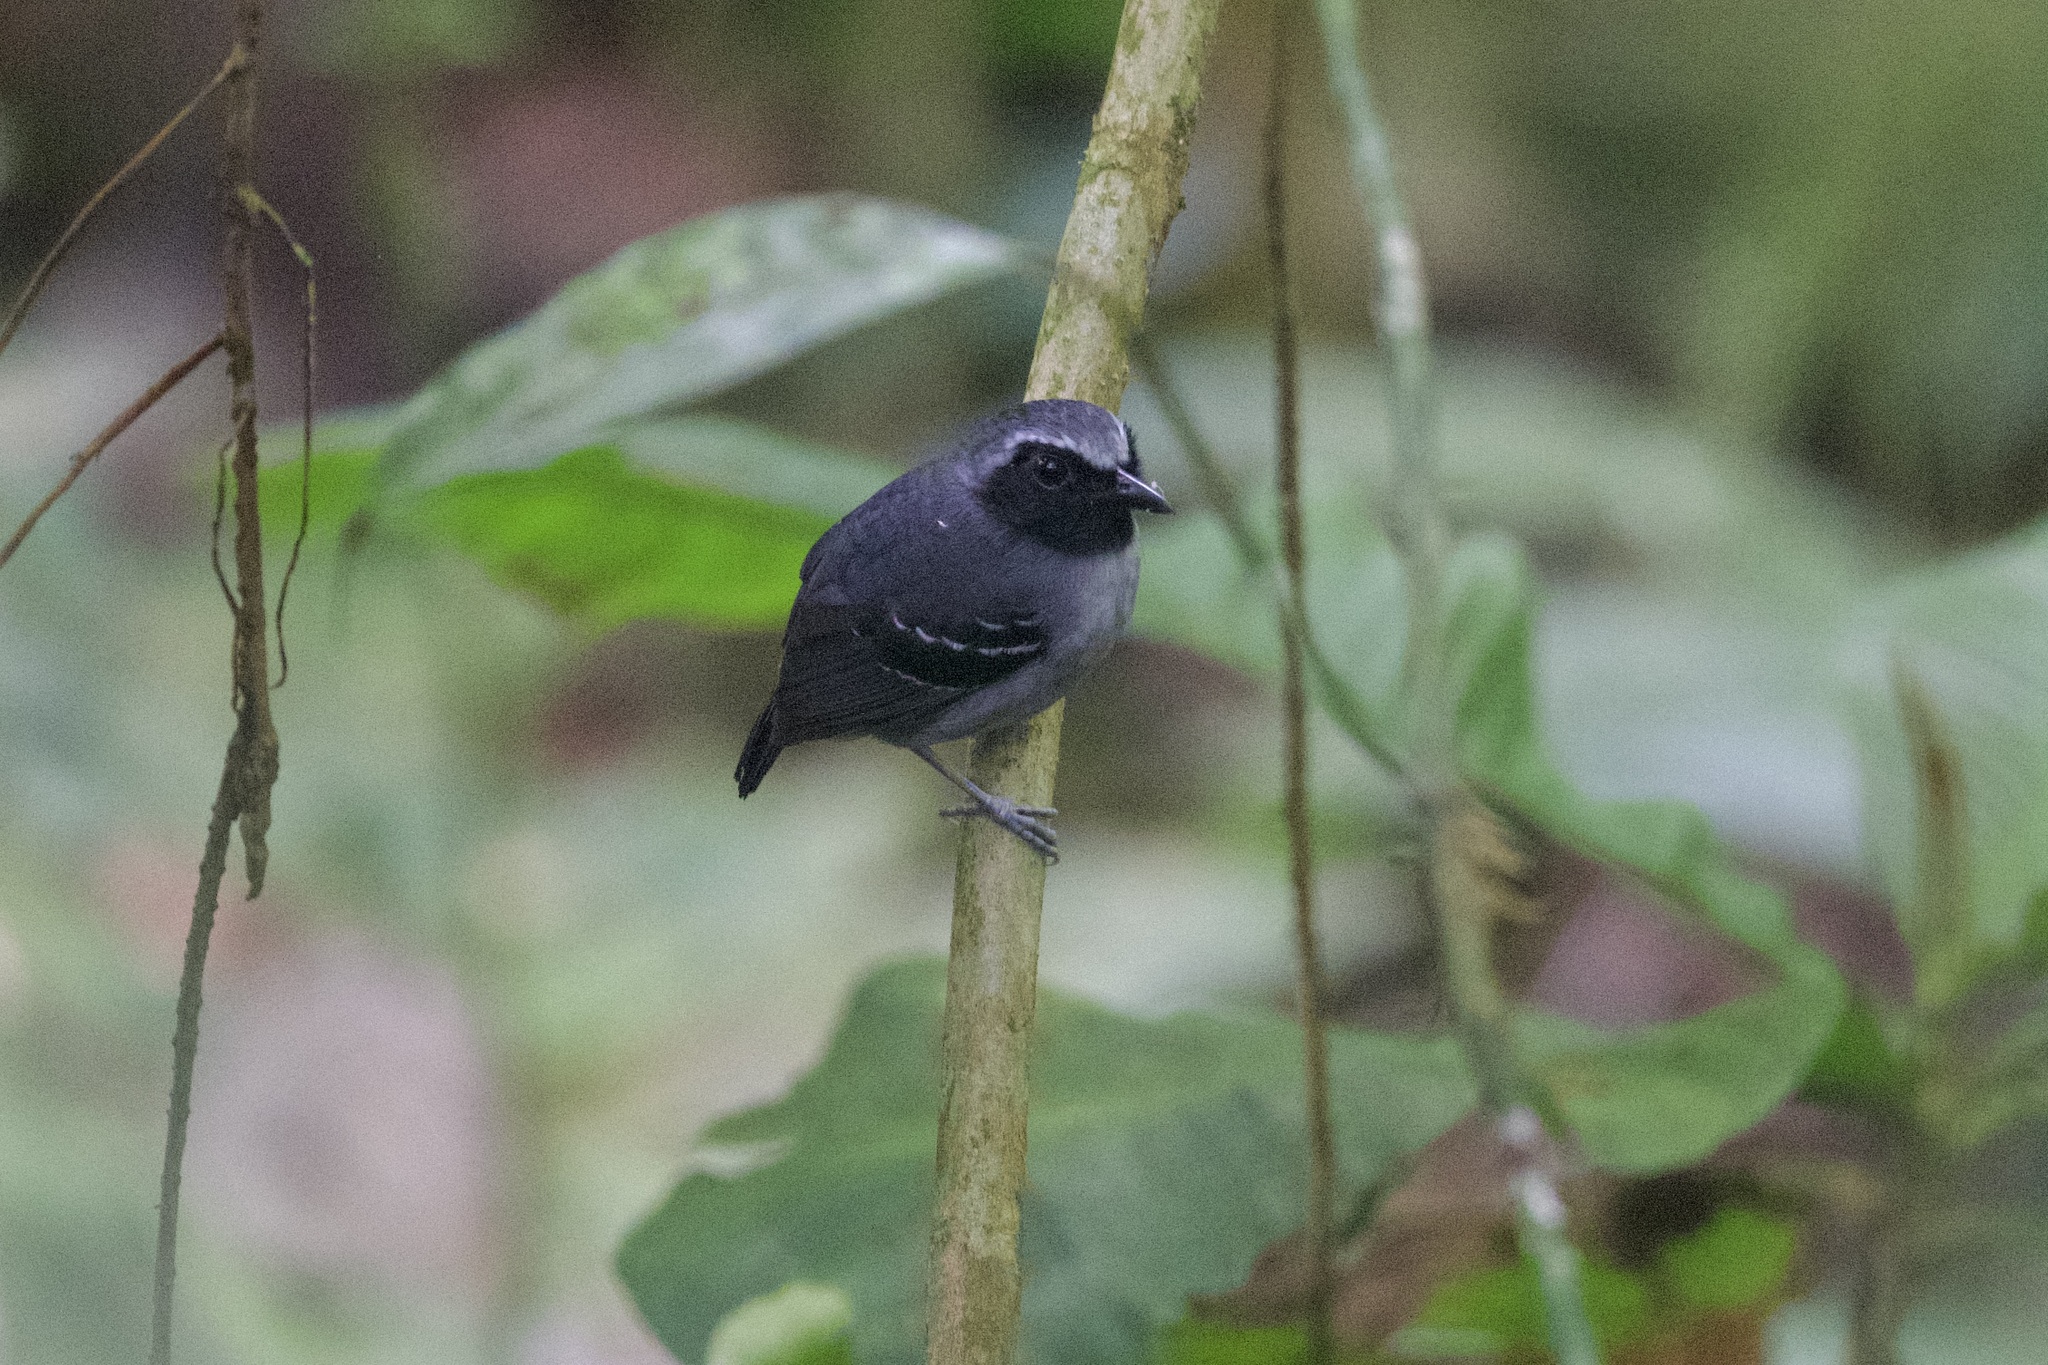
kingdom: Animalia
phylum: Chordata
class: Aves
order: Passeriformes
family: Thamnophilidae
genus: Myrmoborus
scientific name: Myrmoborus myotherinus
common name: Black-faced antbird
